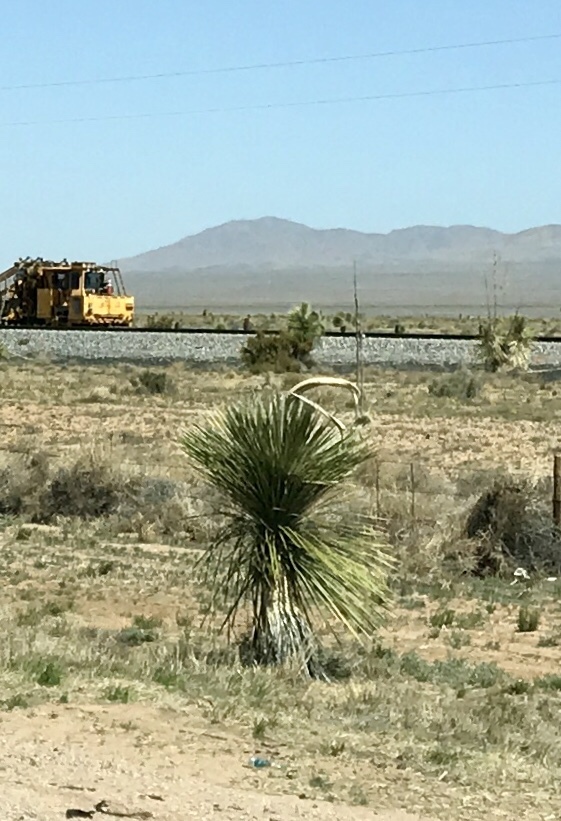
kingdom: Plantae
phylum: Tracheophyta
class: Liliopsida
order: Asparagales
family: Asparagaceae
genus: Yucca
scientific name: Yucca elata
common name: Palmella
